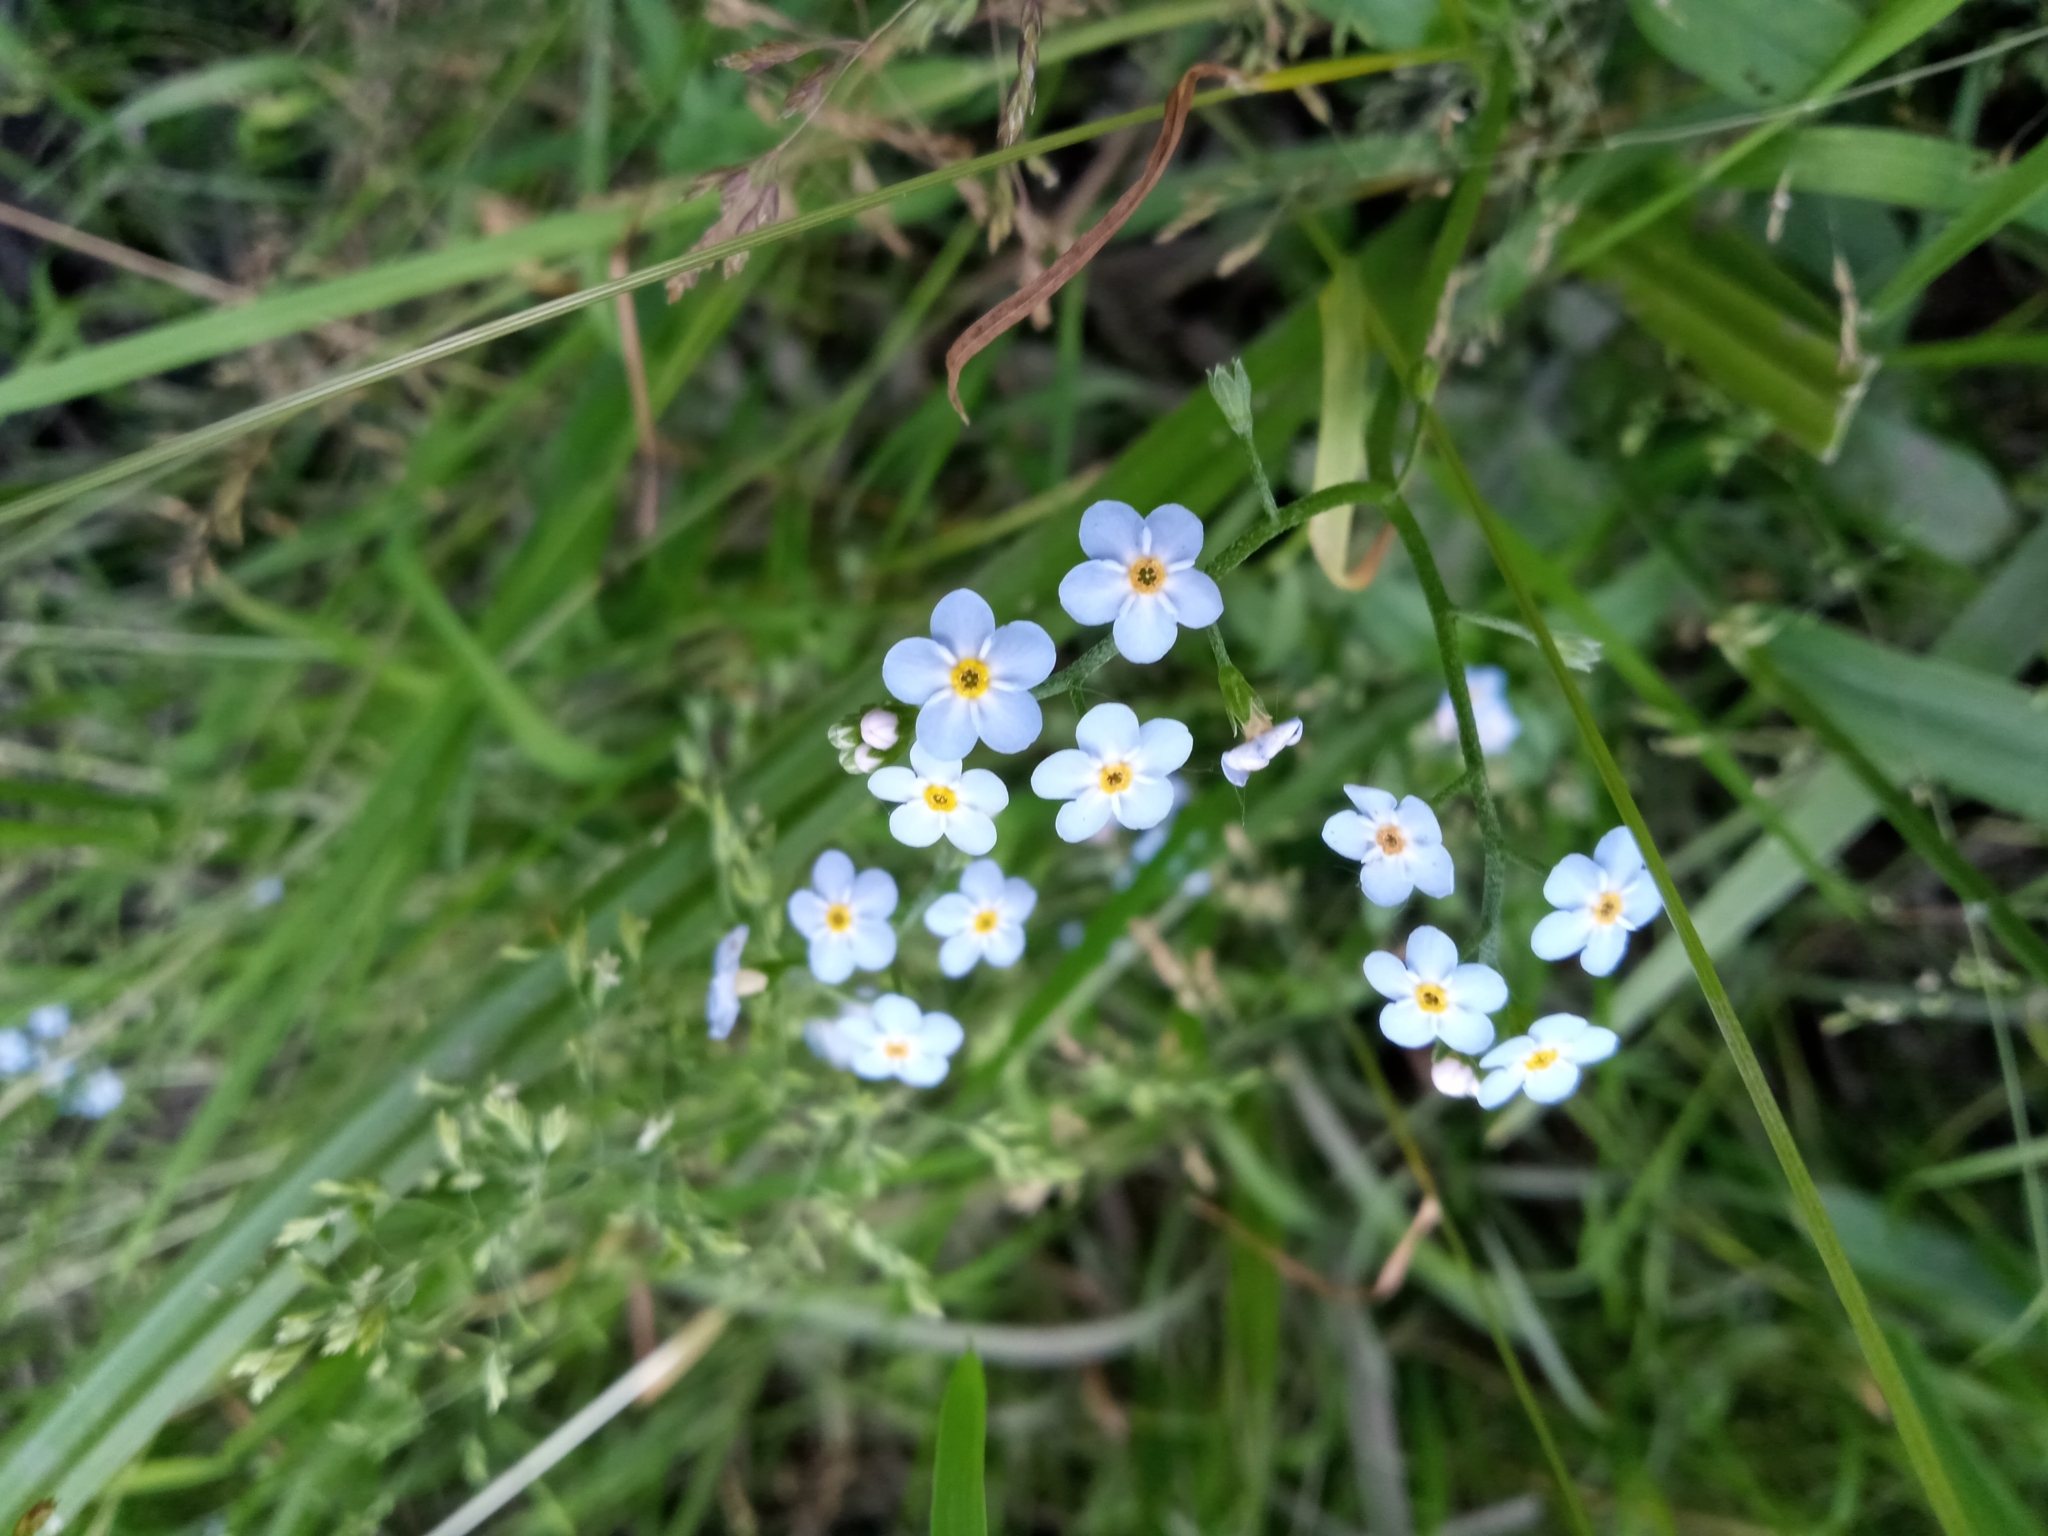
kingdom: Plantae
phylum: Tracheophyta
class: Magnoliopsida
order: Boraginales
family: Boraginaceae
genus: Myosotis
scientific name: Myosotis scorpioides
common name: Water forget-me-not
